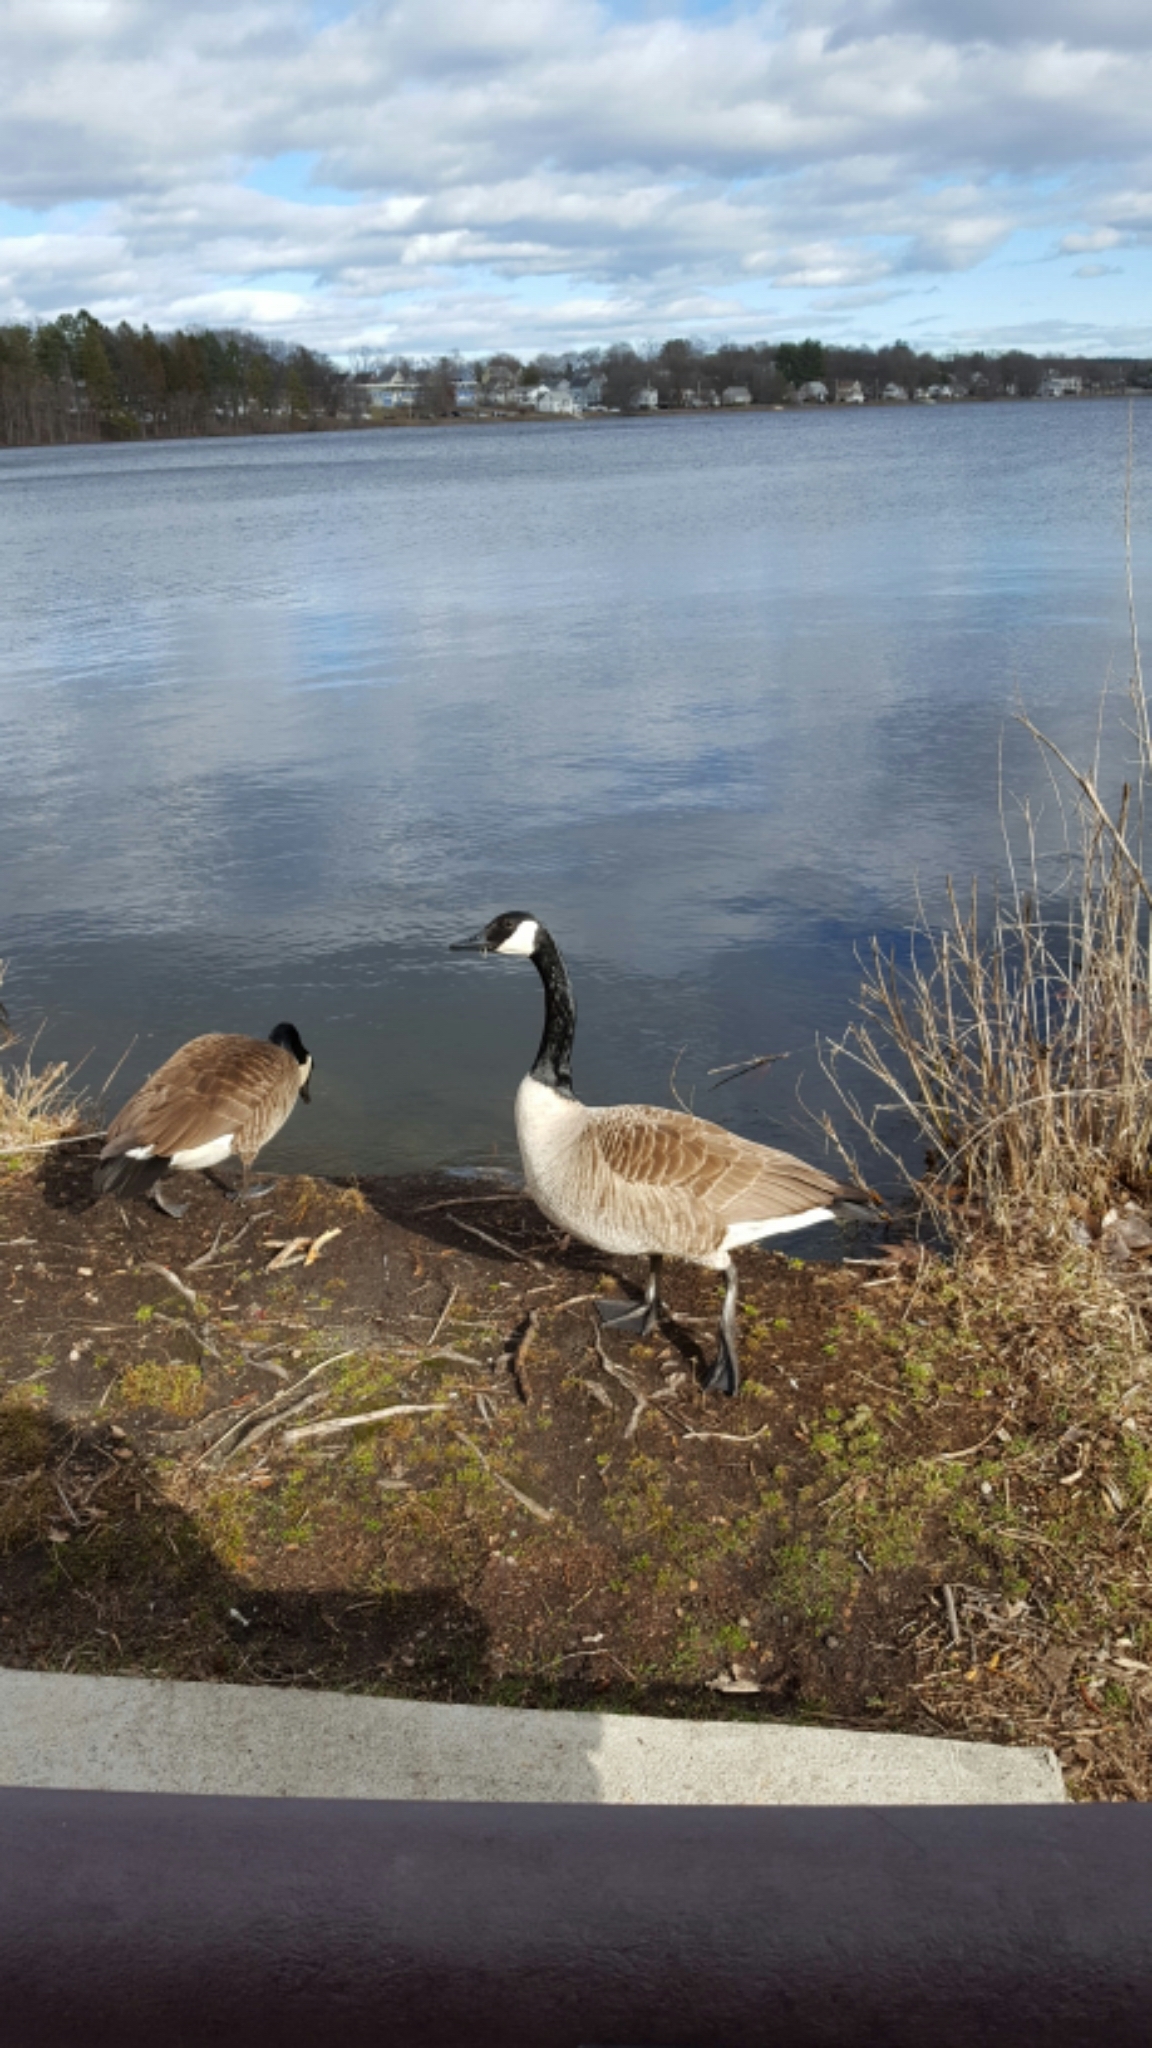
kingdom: Animalia
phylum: Chordata
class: Aves
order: Anseriformes
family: Anatidae
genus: Branta
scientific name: Branta canadensis
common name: Canada goose
